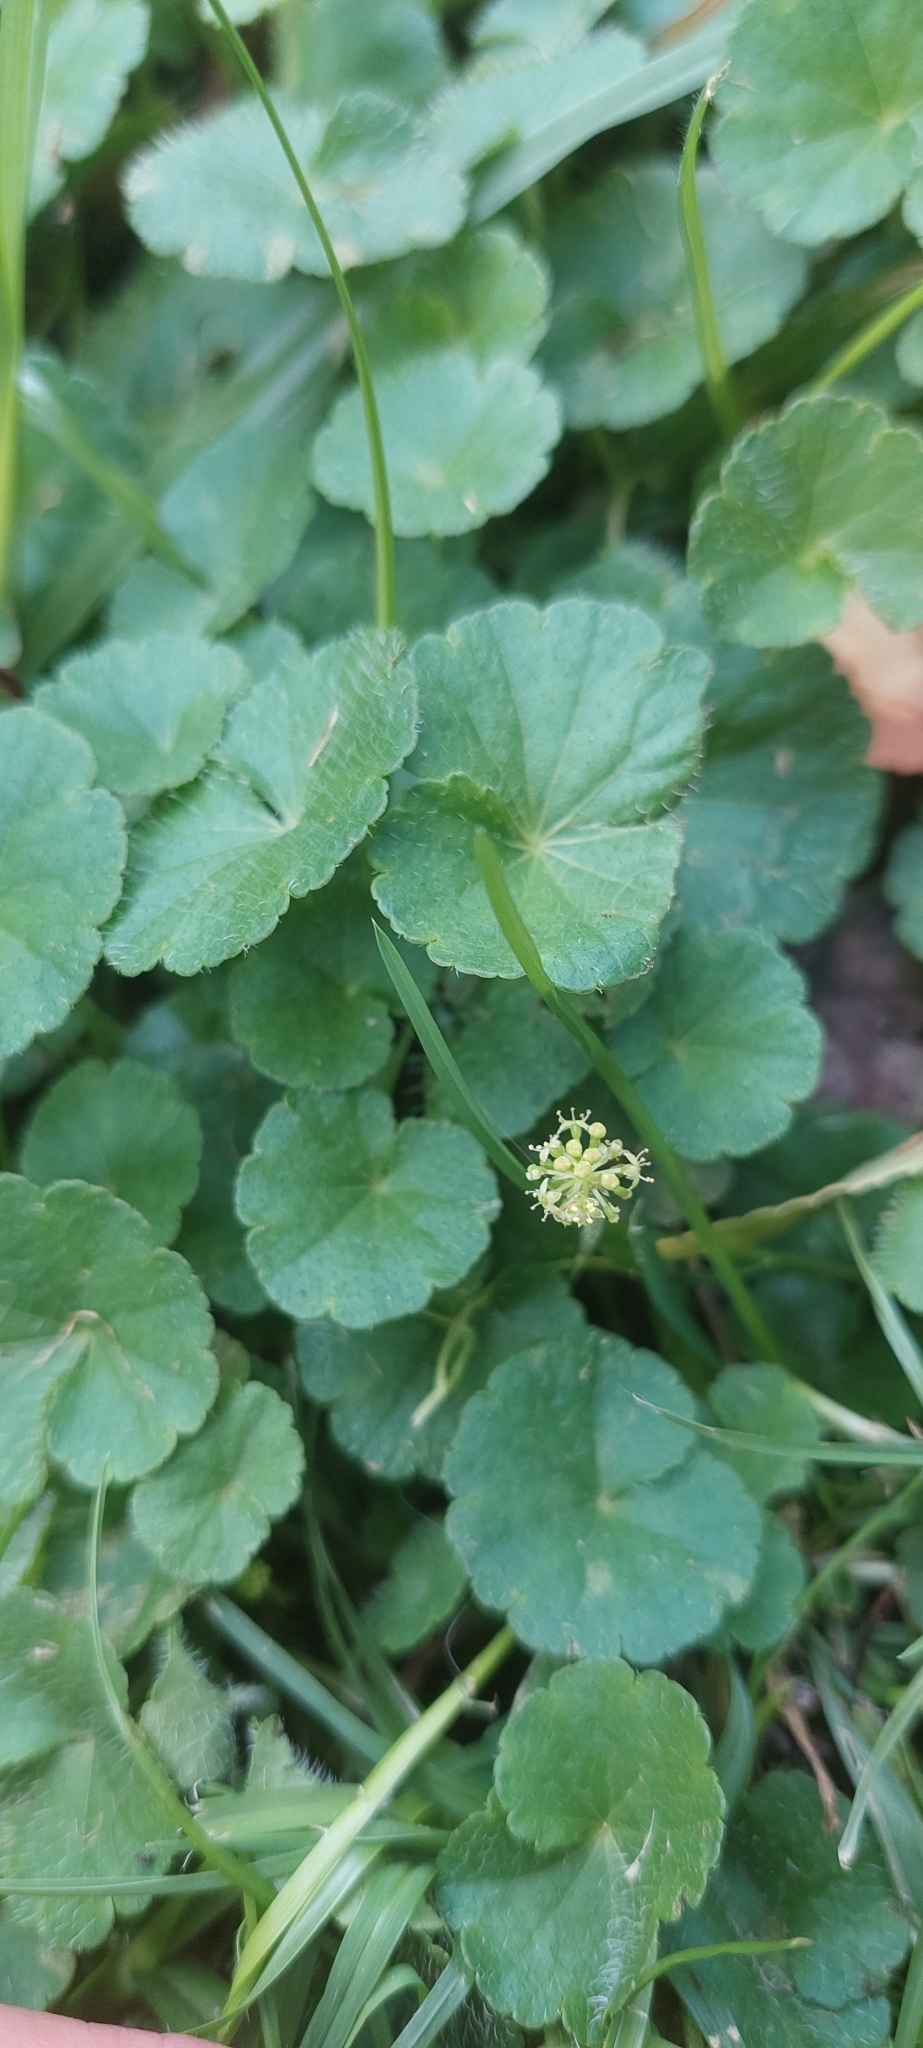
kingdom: Plantae
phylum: Tracheophyta
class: Magnoliopsida
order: Apiales
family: Araliaceae
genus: Hydrocotyle
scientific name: Hydrocotyle bonplandii
